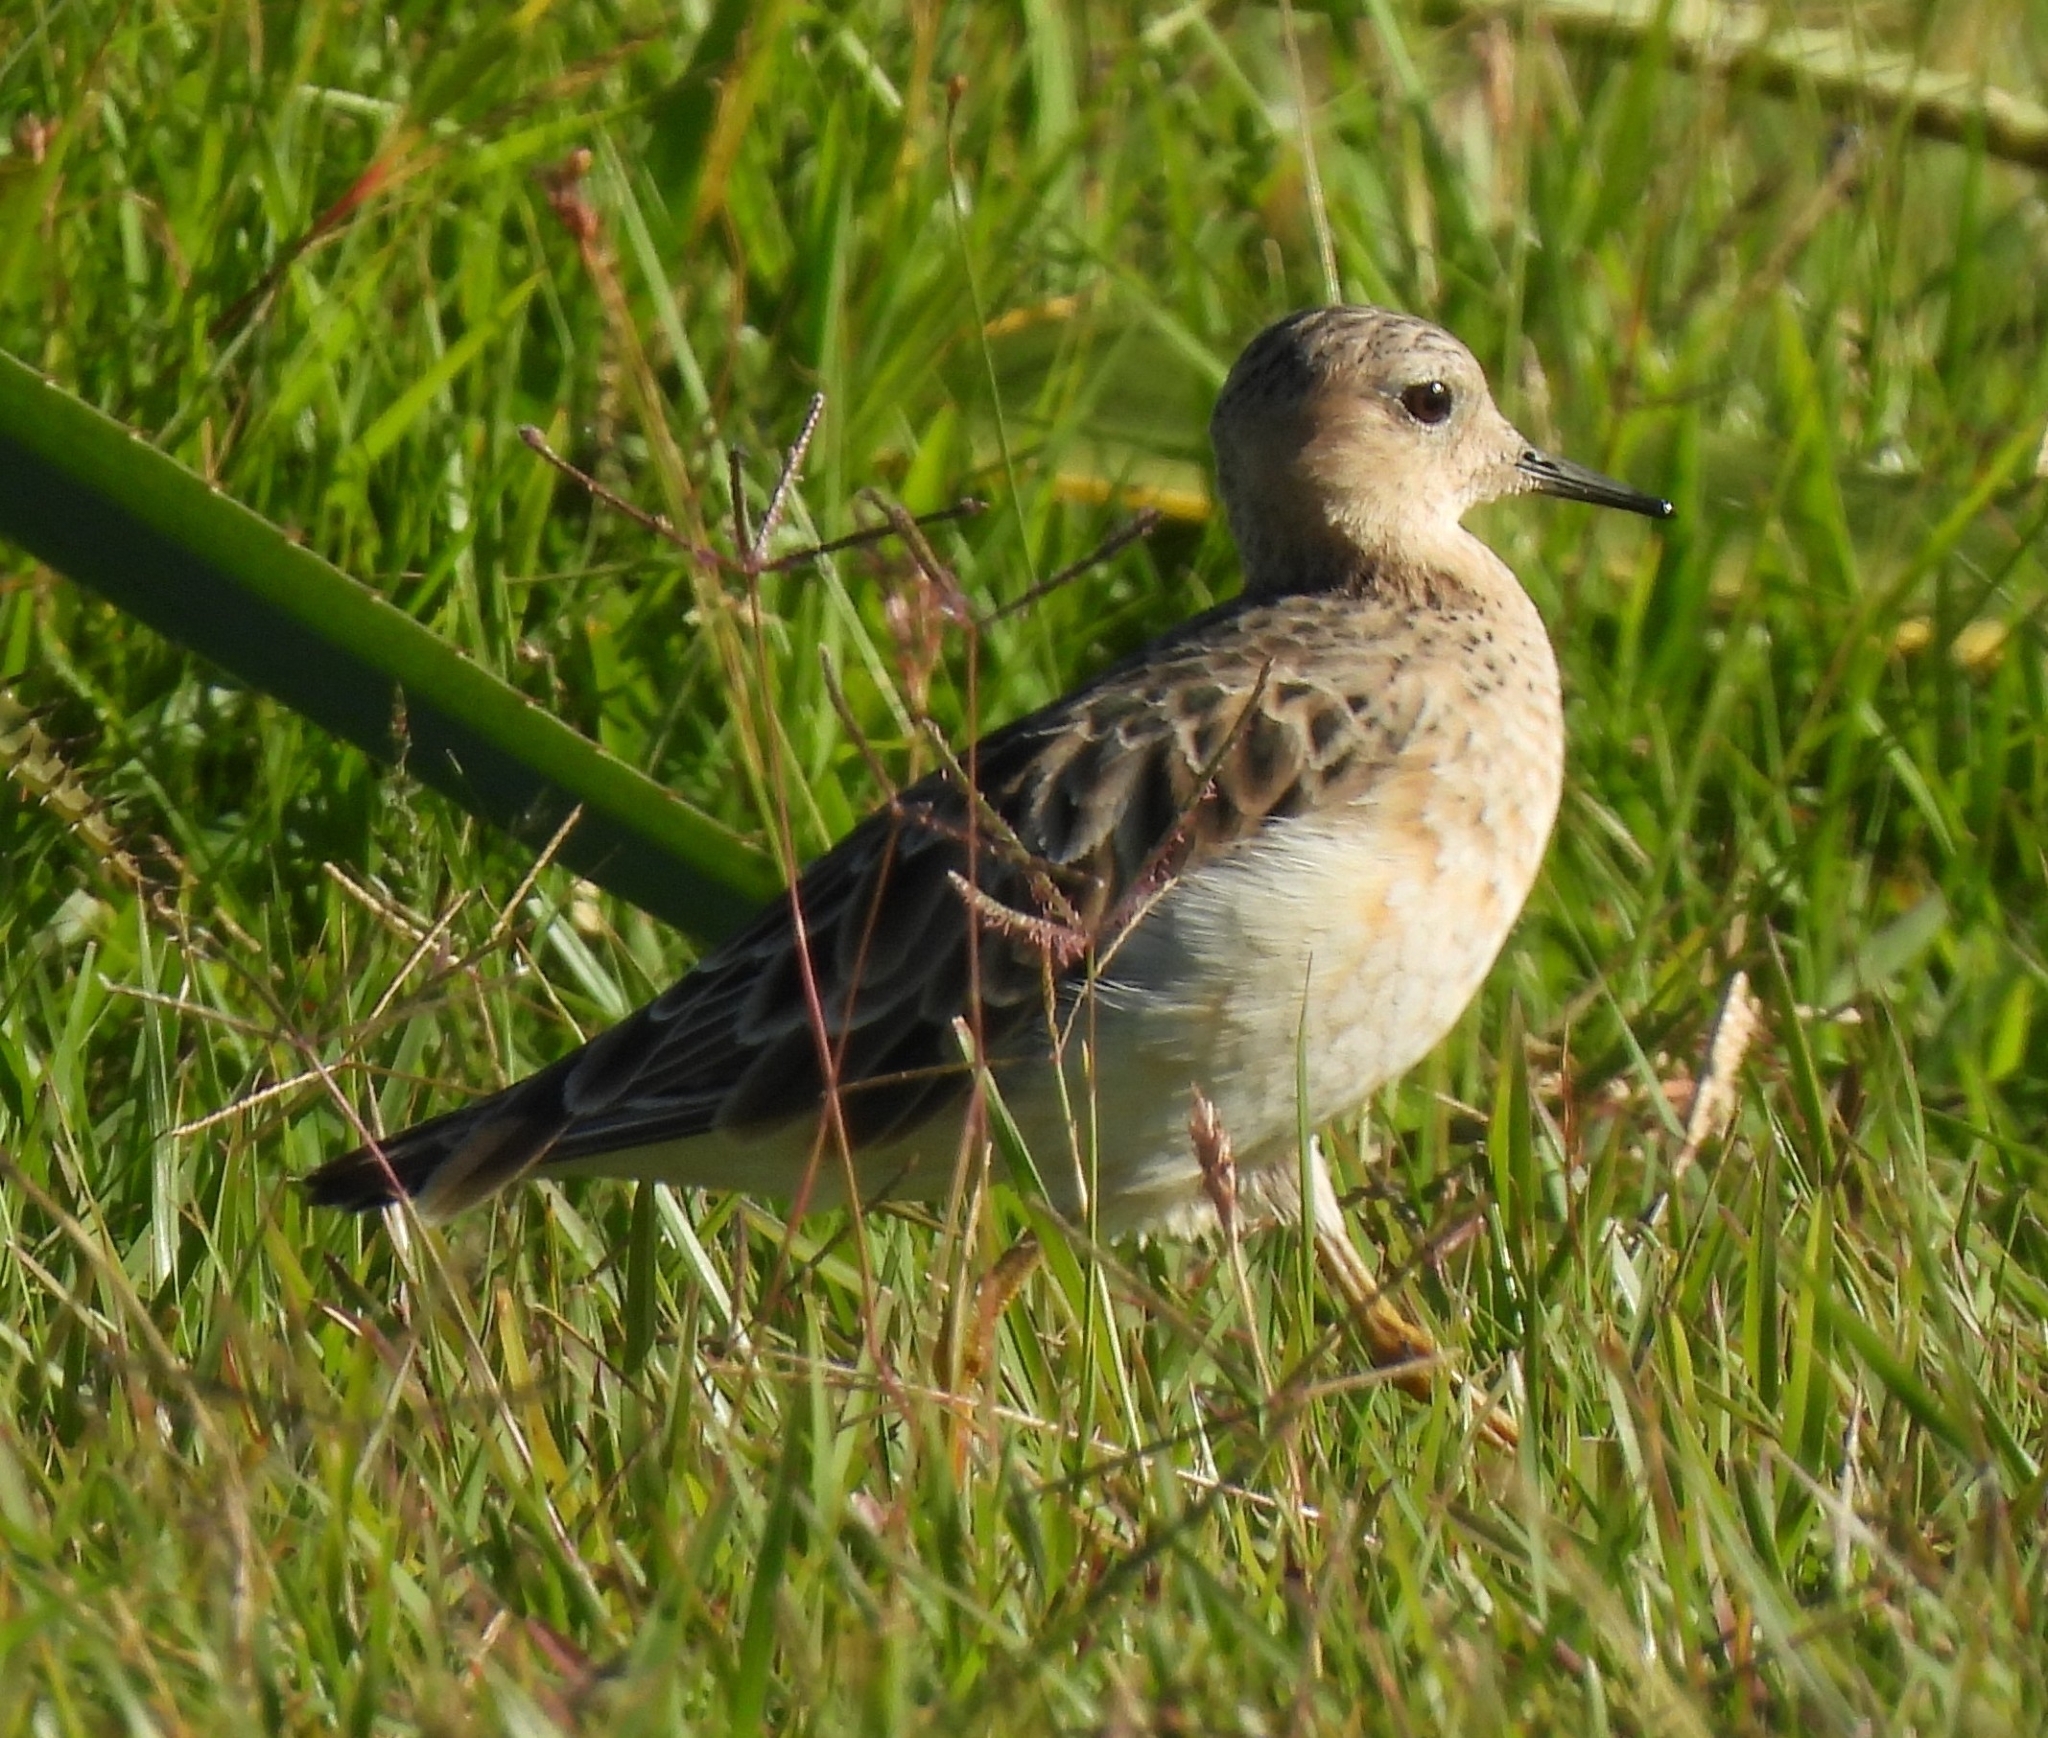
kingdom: Animalia
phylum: Chordata
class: Aves
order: Charadriiformes
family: Scolopacidae
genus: Calidris
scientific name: Calidris subruficollis
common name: Buff-breasted sandpiper
